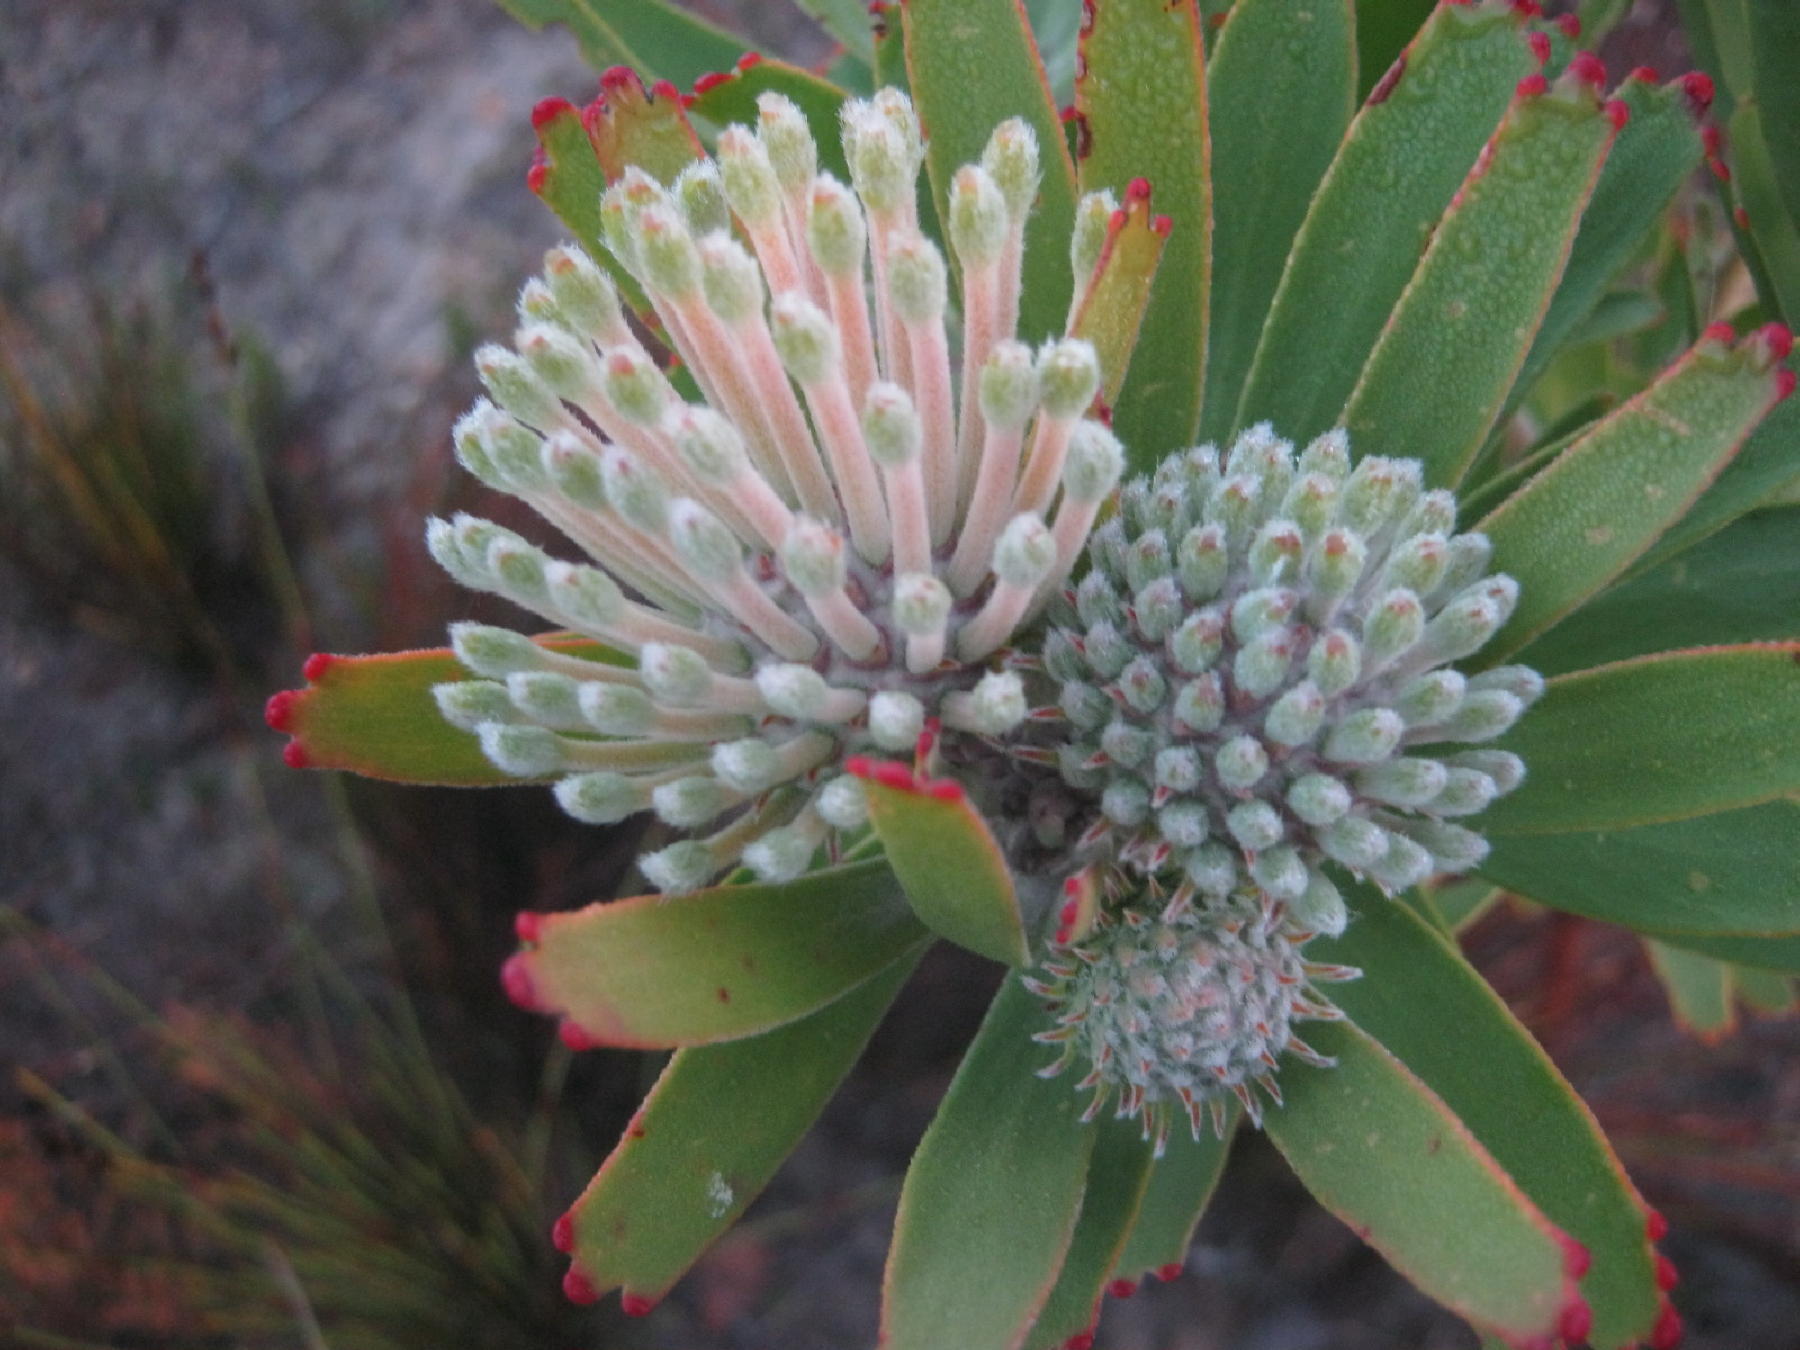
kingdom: Plantae
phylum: Tracheophyta
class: Magnoliopsida
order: Proteales
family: Proteaceae
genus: Leucospermum
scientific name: Leucospermum erubescens
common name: Oudtshoorn pincushion
